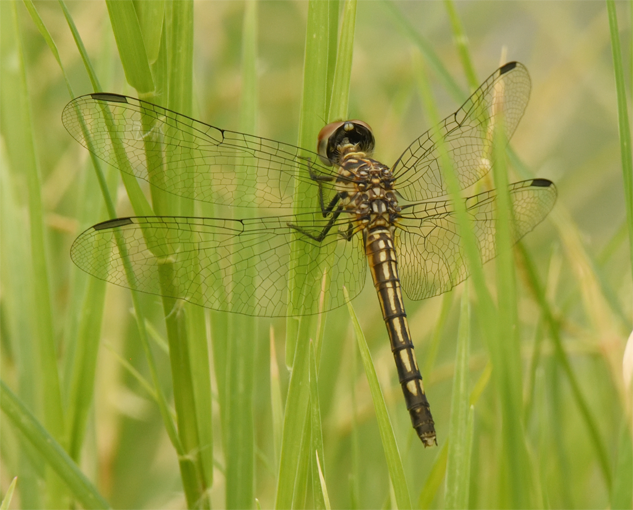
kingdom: Animalia
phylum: Arthropoda
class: Insecta
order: Odonata
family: Libellulidae
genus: Pachydiplax
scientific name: Pachydiplax longipennis
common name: Blue dasher
